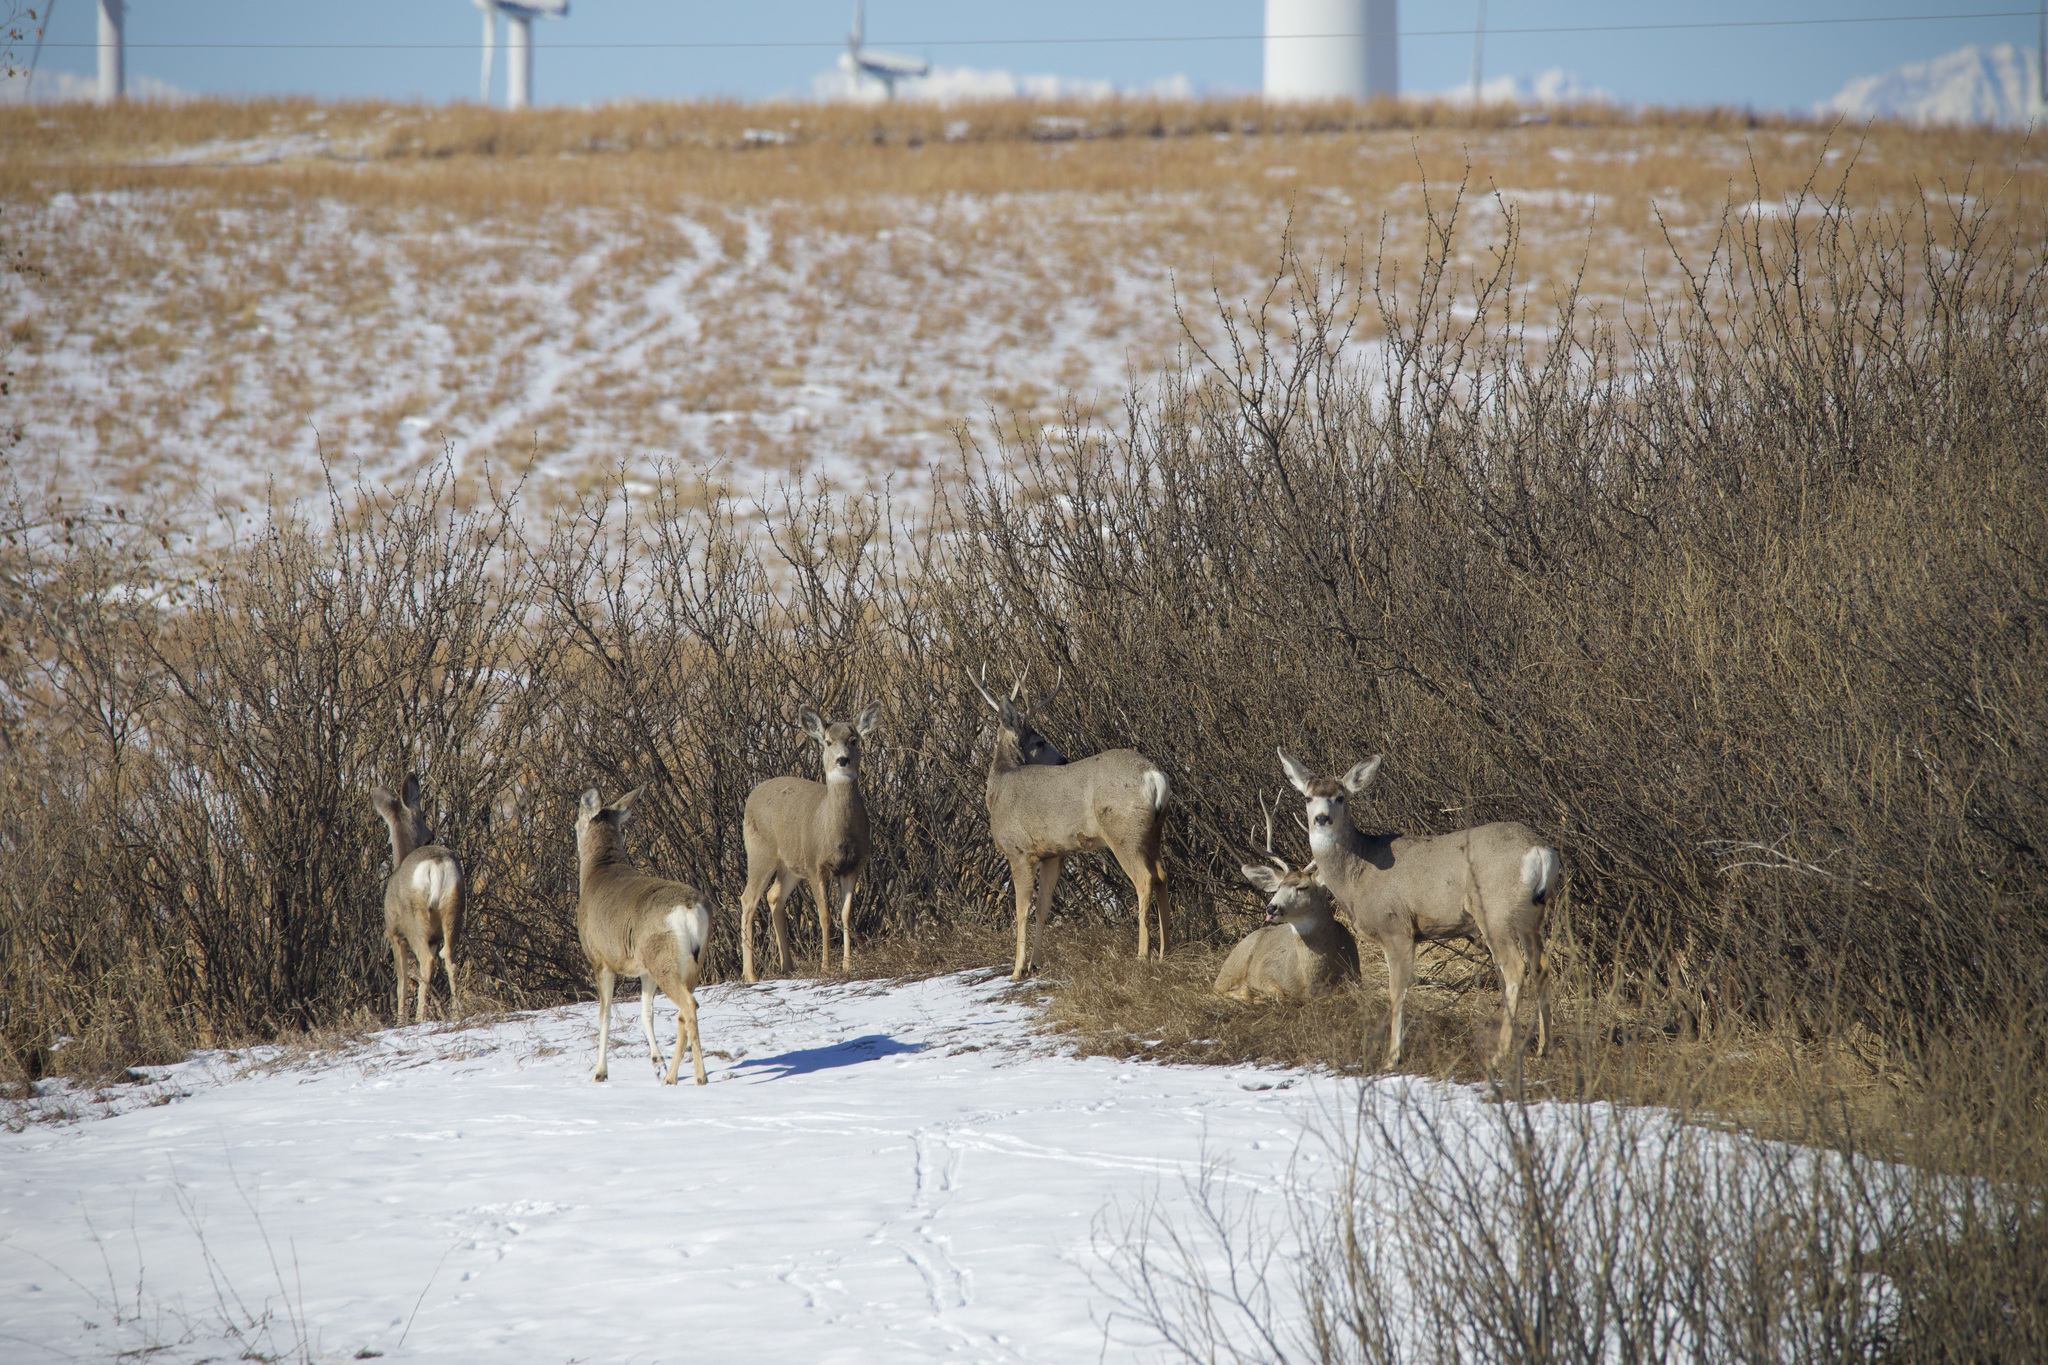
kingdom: Animalia
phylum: Chordata
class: Mammalia
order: Artiodactyla
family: Cervidae
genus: Odocoileus
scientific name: Odocoileus hemionus
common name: Mule deer
